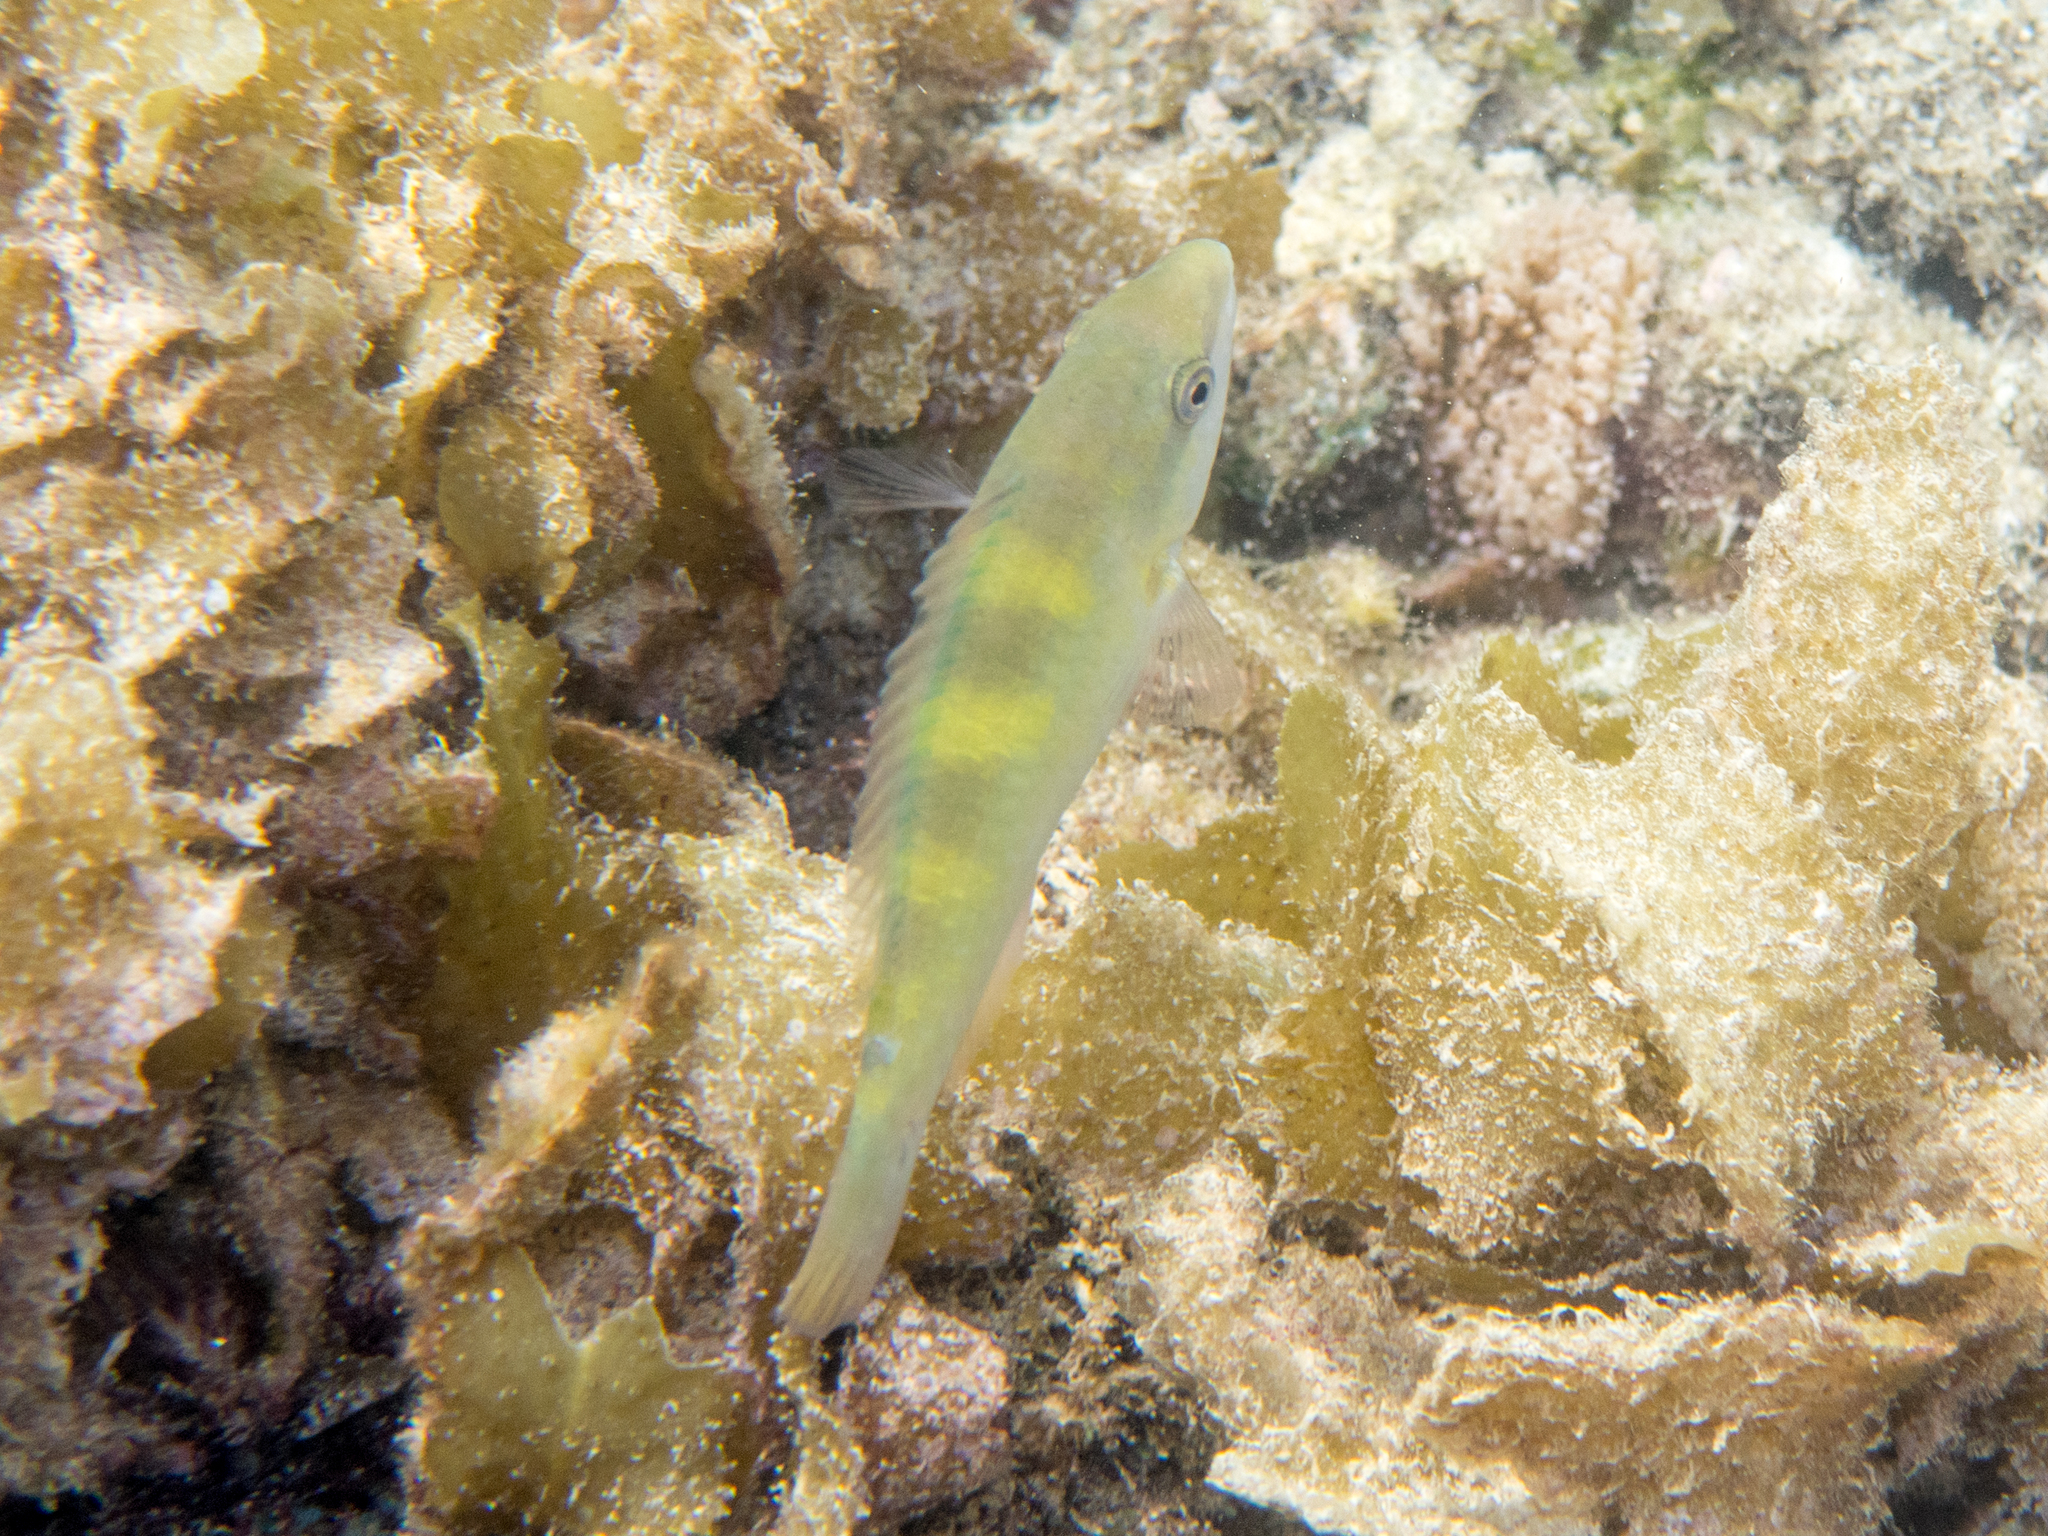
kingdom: Animalia
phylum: Chordata
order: Perciformes
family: Scaridae
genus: Scarus
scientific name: Scarus scaber
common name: Dusky-capped parrotfish
